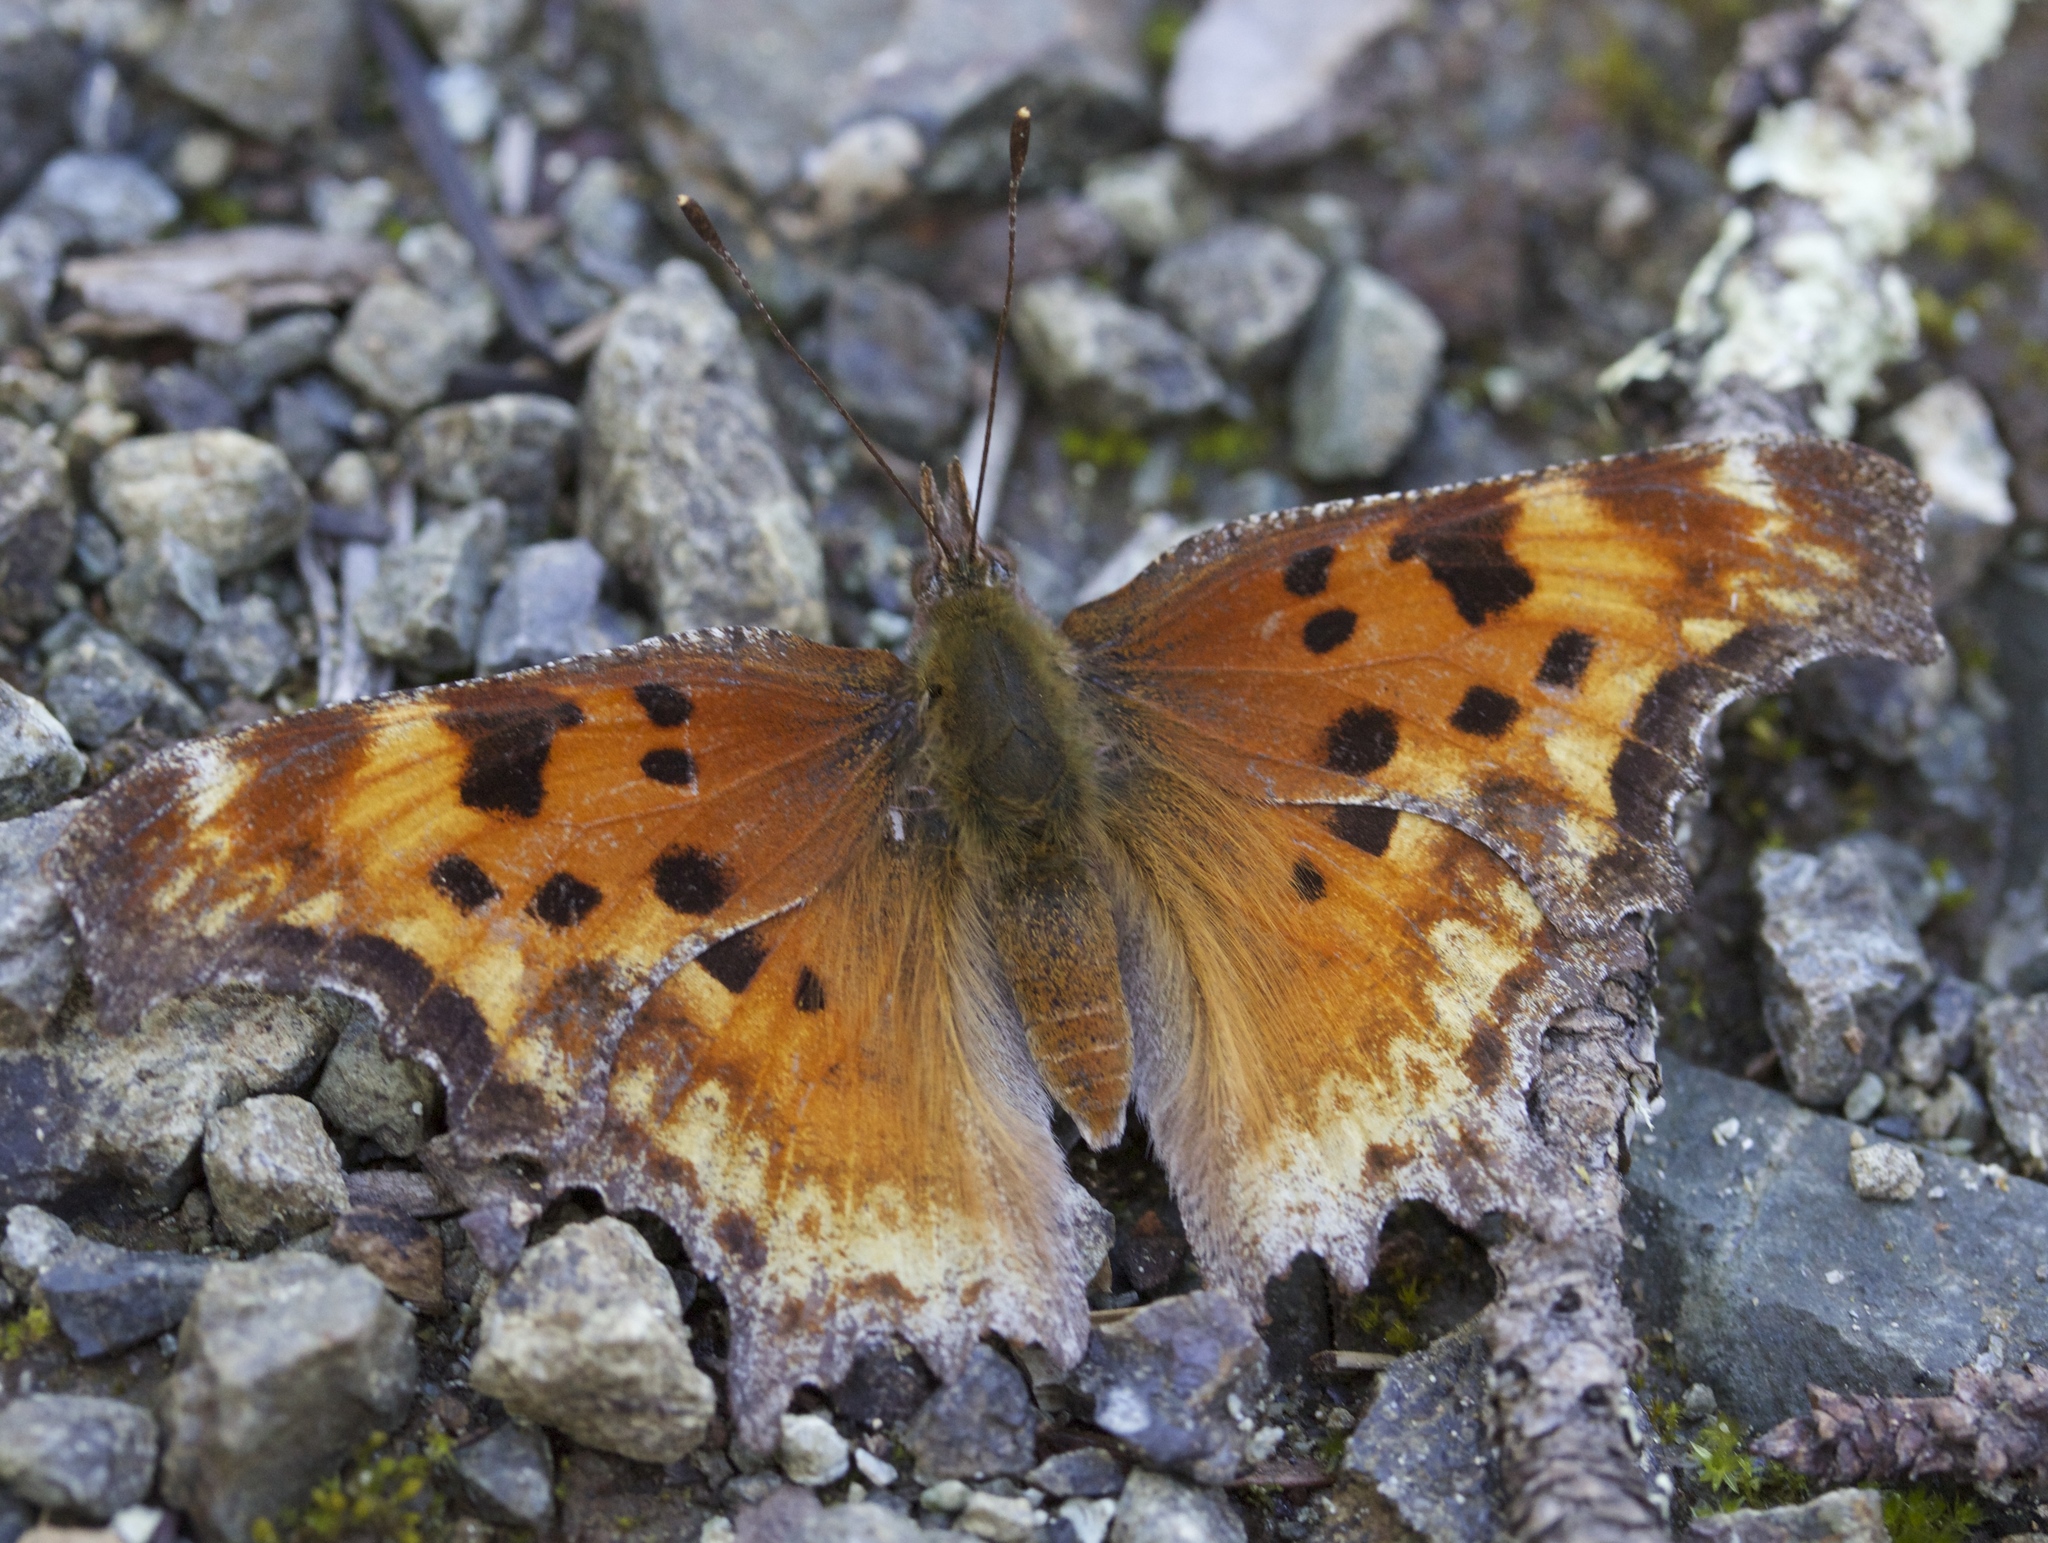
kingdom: Animalia
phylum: Arthropoda
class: Insecta
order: Lepidoptera
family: Nymphalidae
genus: Polygonia
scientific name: Polygonia gracilis
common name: Hoary comma
